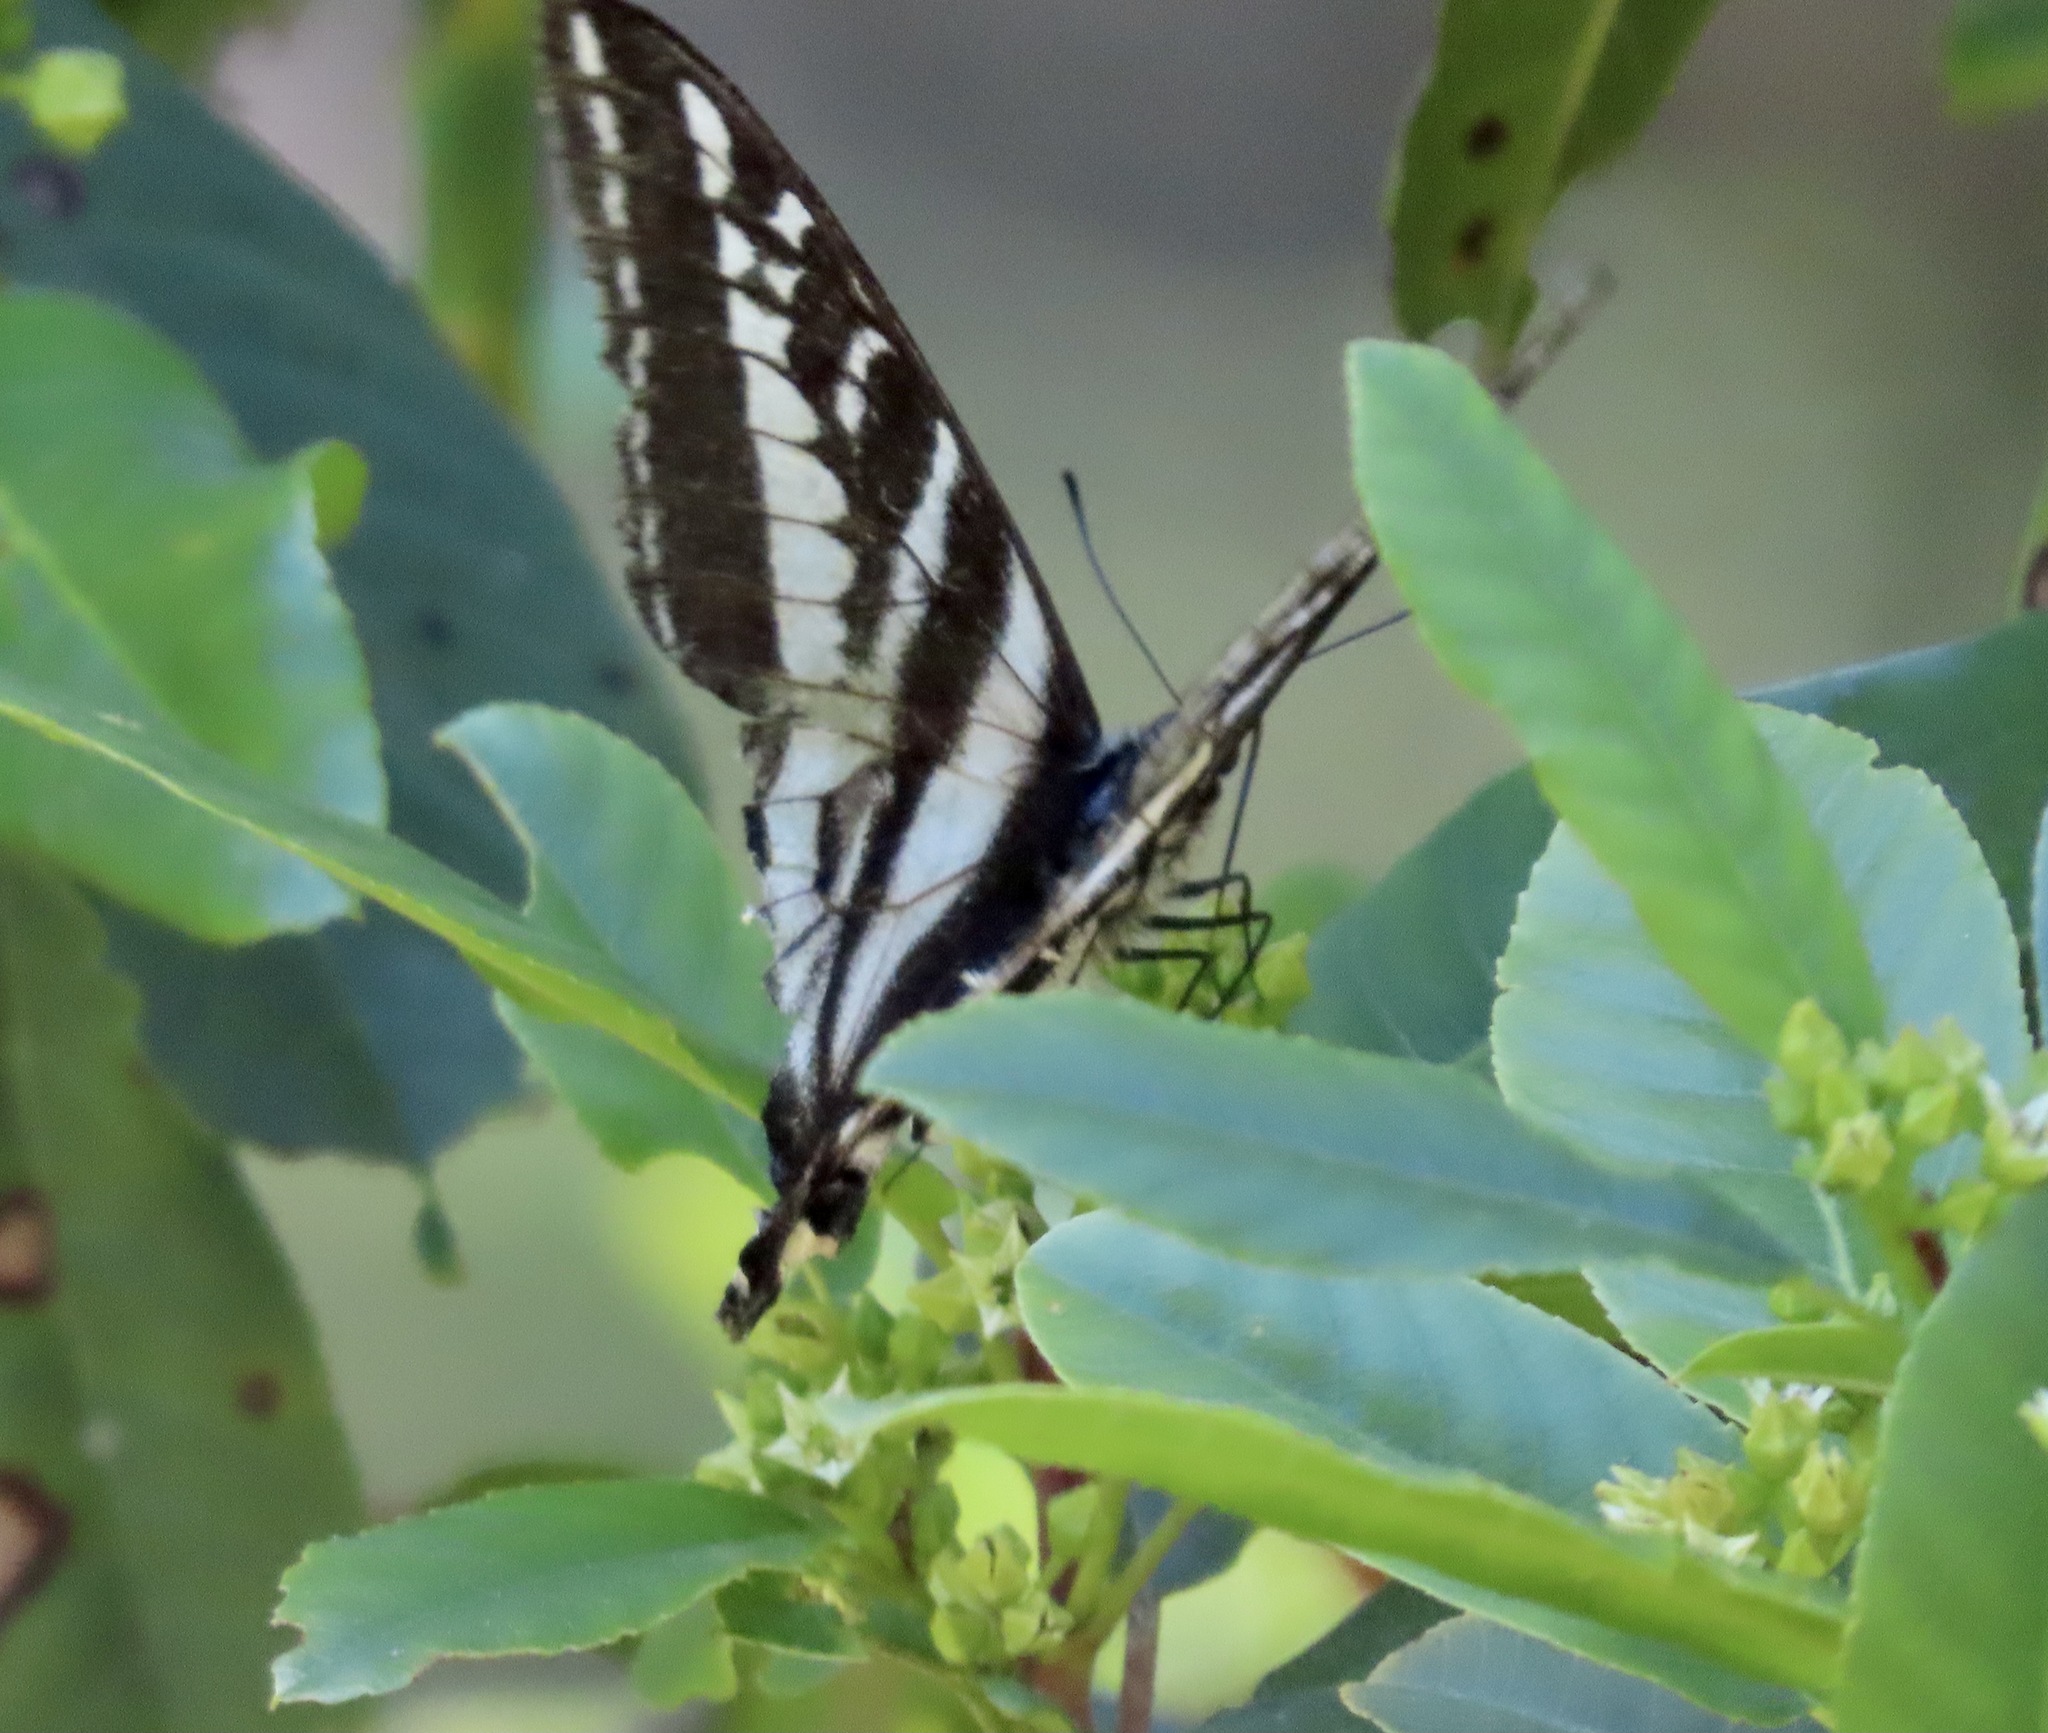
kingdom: Animalia
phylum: Arthropoda
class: Insecta
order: Lepidoptera
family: Papilionidae
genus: Papilio
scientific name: Papilio eurymedon
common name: Pale tiger swallowtail
